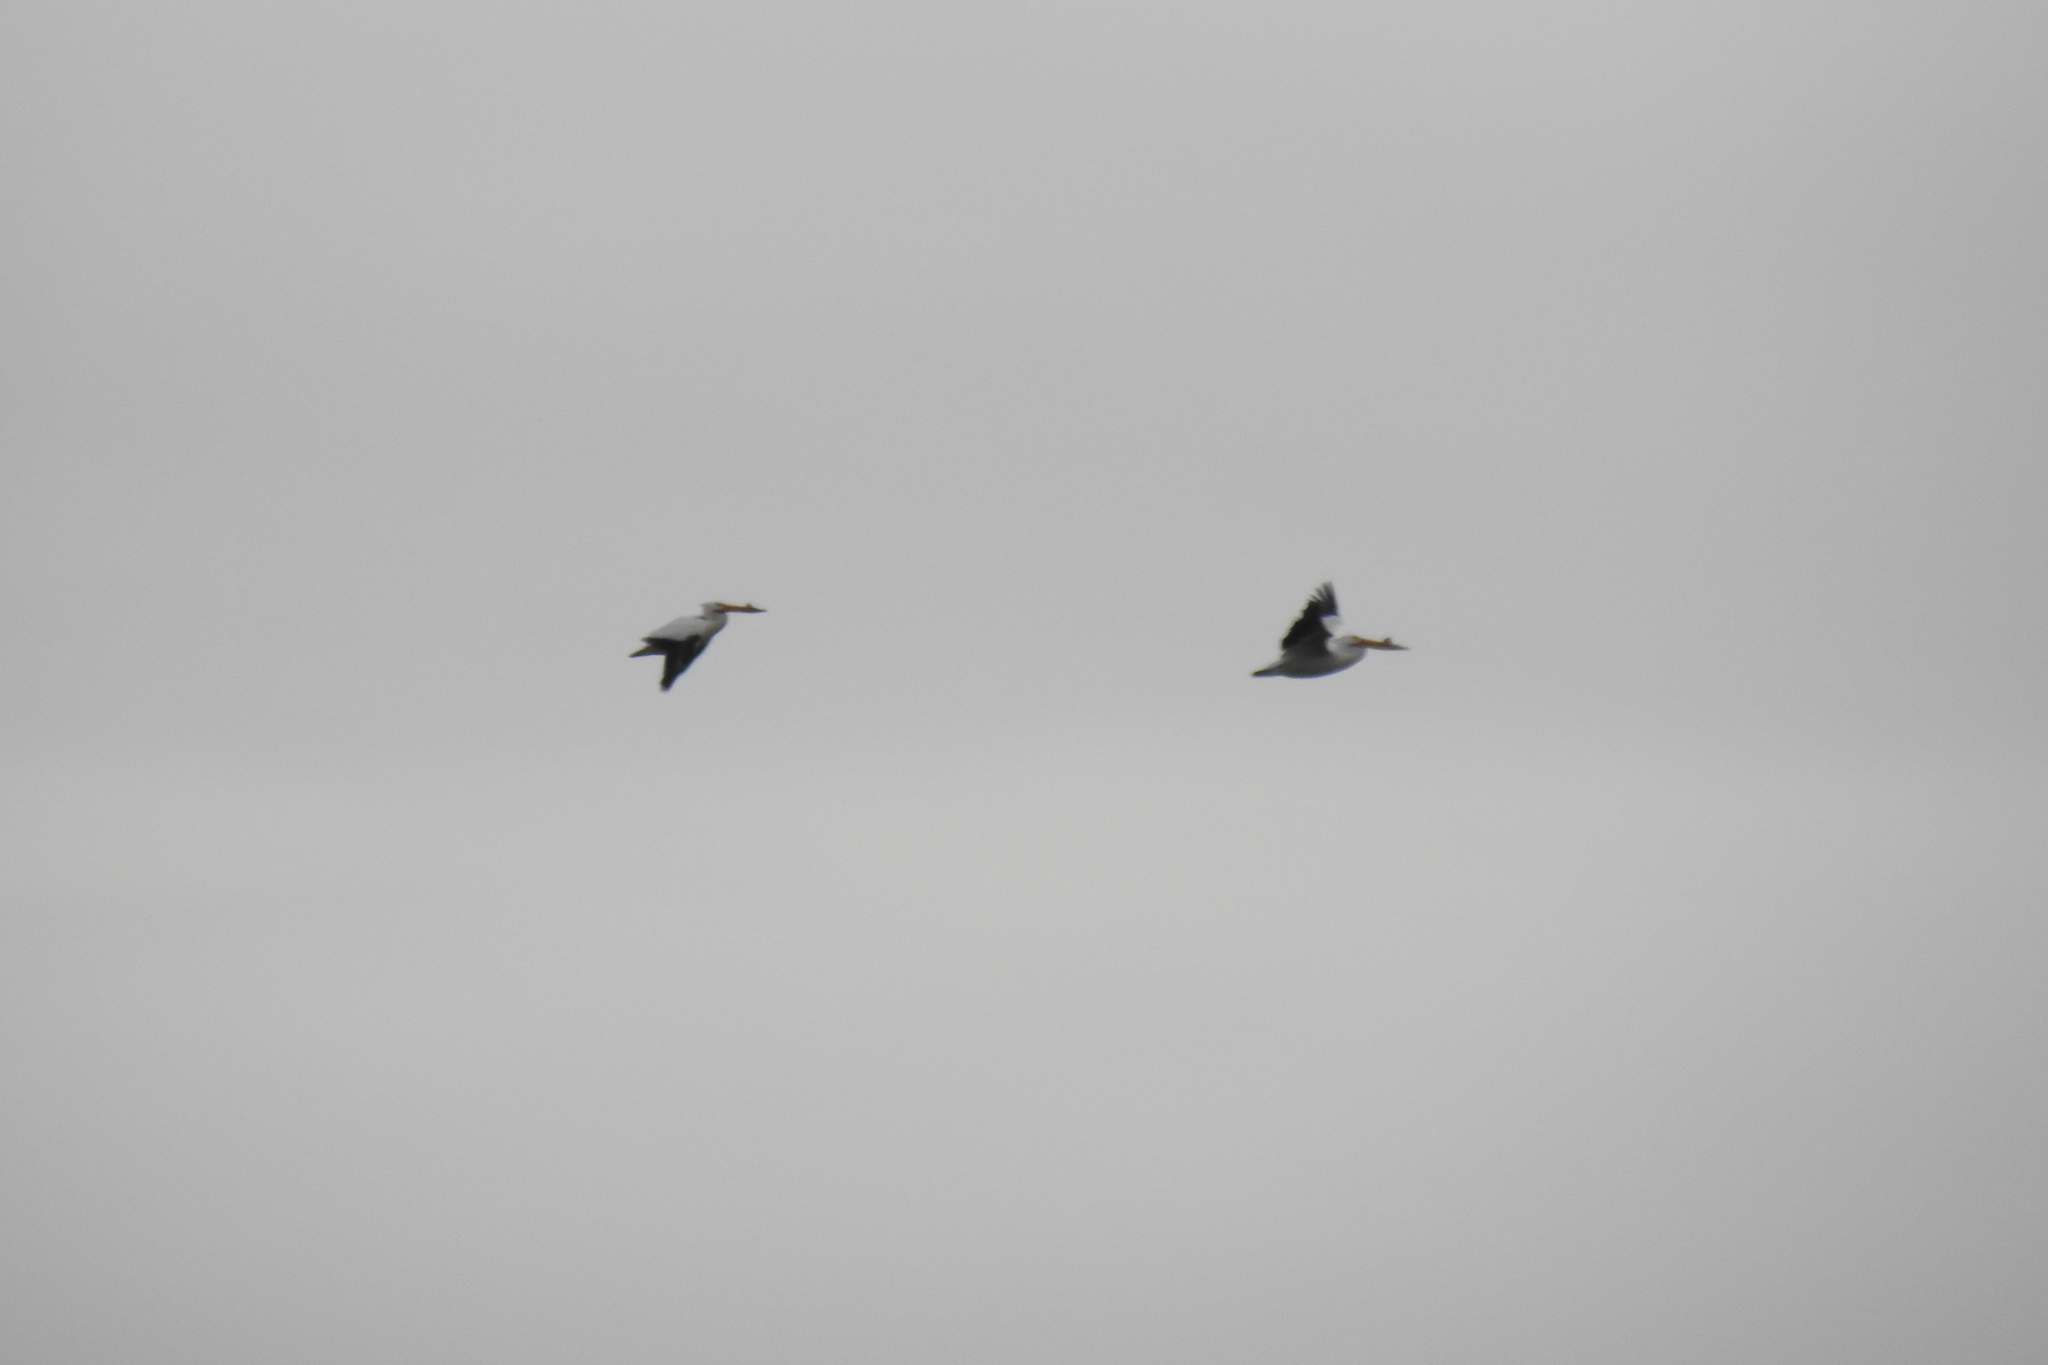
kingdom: Animalia
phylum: Chordata
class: Aves
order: Pelecaniformes
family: Pelecanidae
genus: Pelecanus
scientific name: Pelecanus erythrorhynchos
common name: American white pelican
